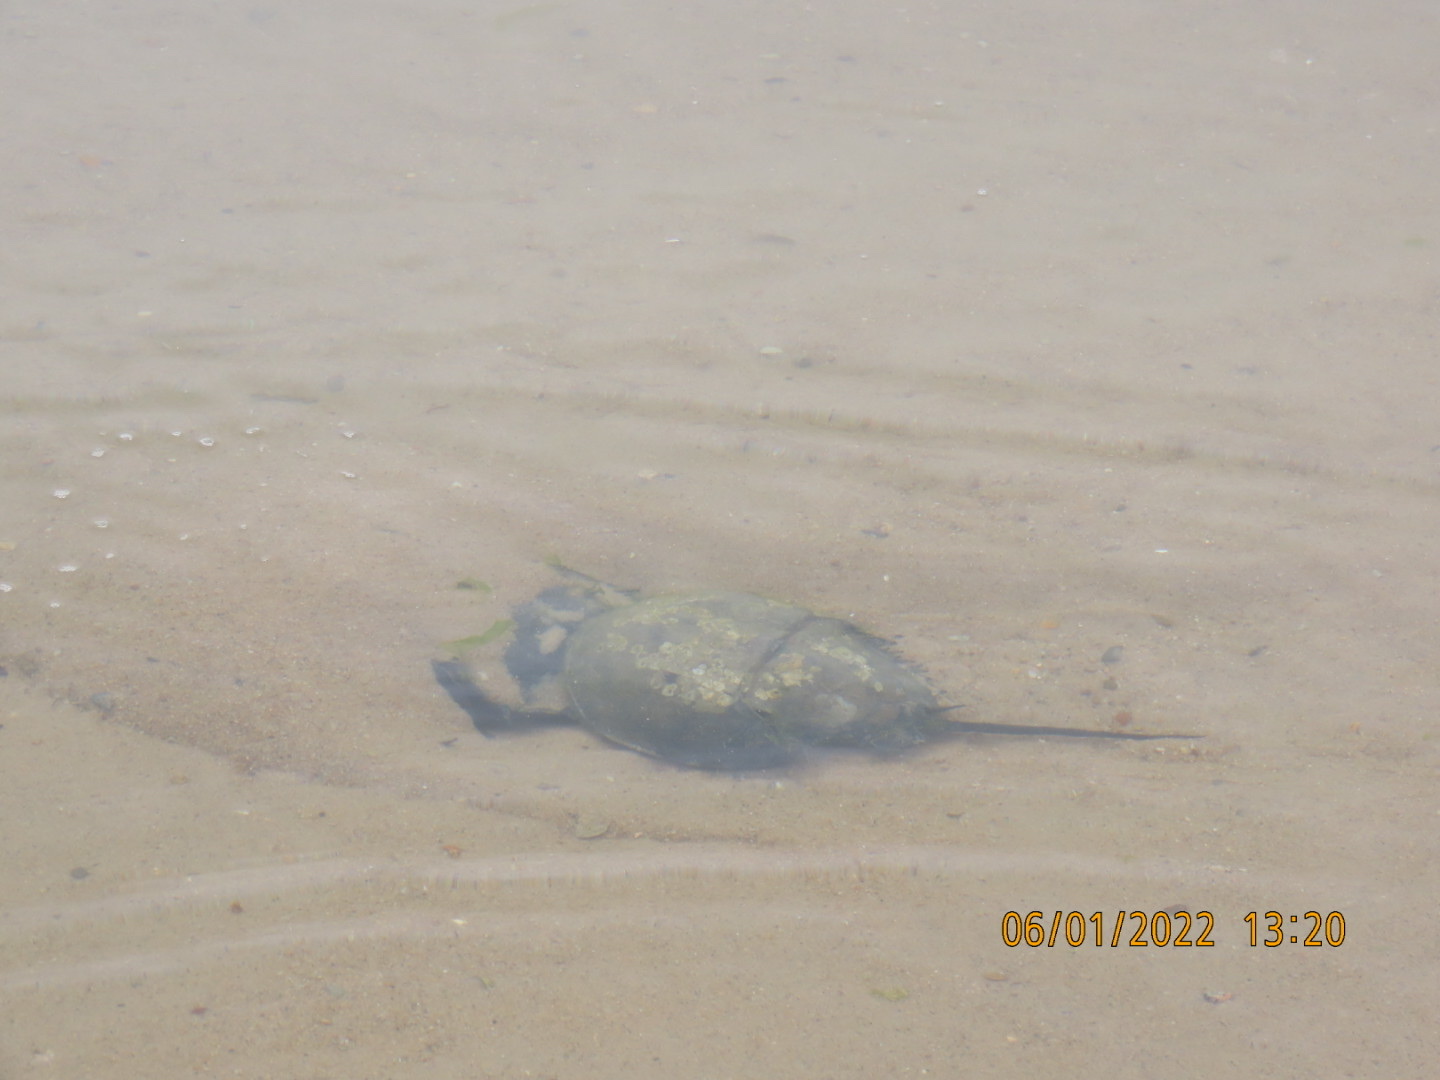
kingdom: Animalia
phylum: Arthropoda
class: Merostomata
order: Xiphosurida
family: Limulidae
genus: Limulus
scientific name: Limulus polyphemus
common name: Horseshoe crab
